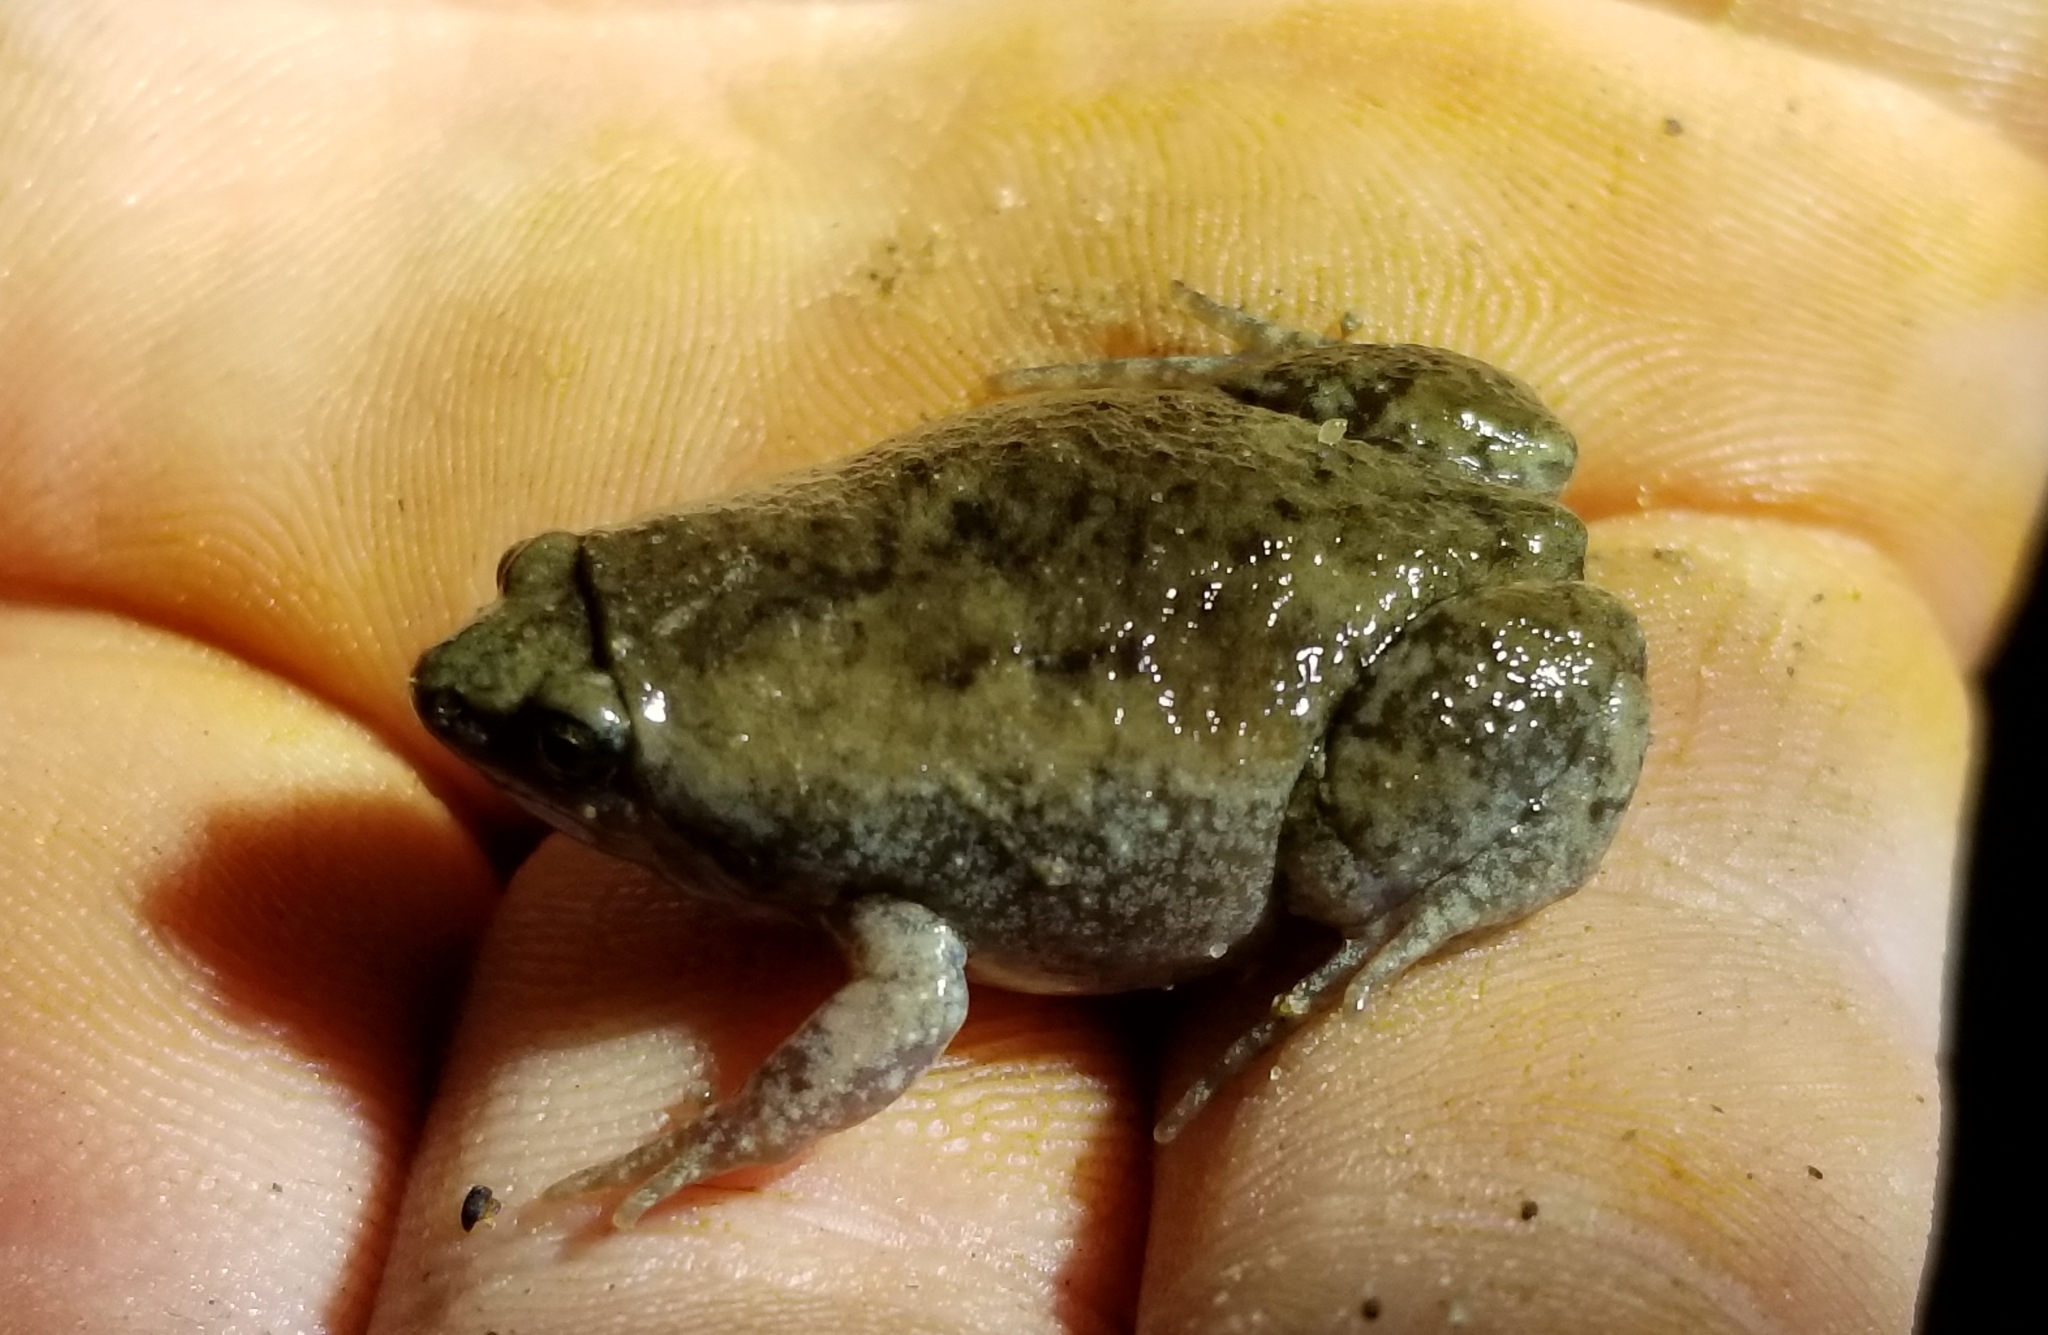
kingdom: Animalia
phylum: Chordata
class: Amphibia
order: Anura
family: Microhylidae
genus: Gastrophryne
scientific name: Gastrophryne carolinensis
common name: Eastern narrowmouth toad
